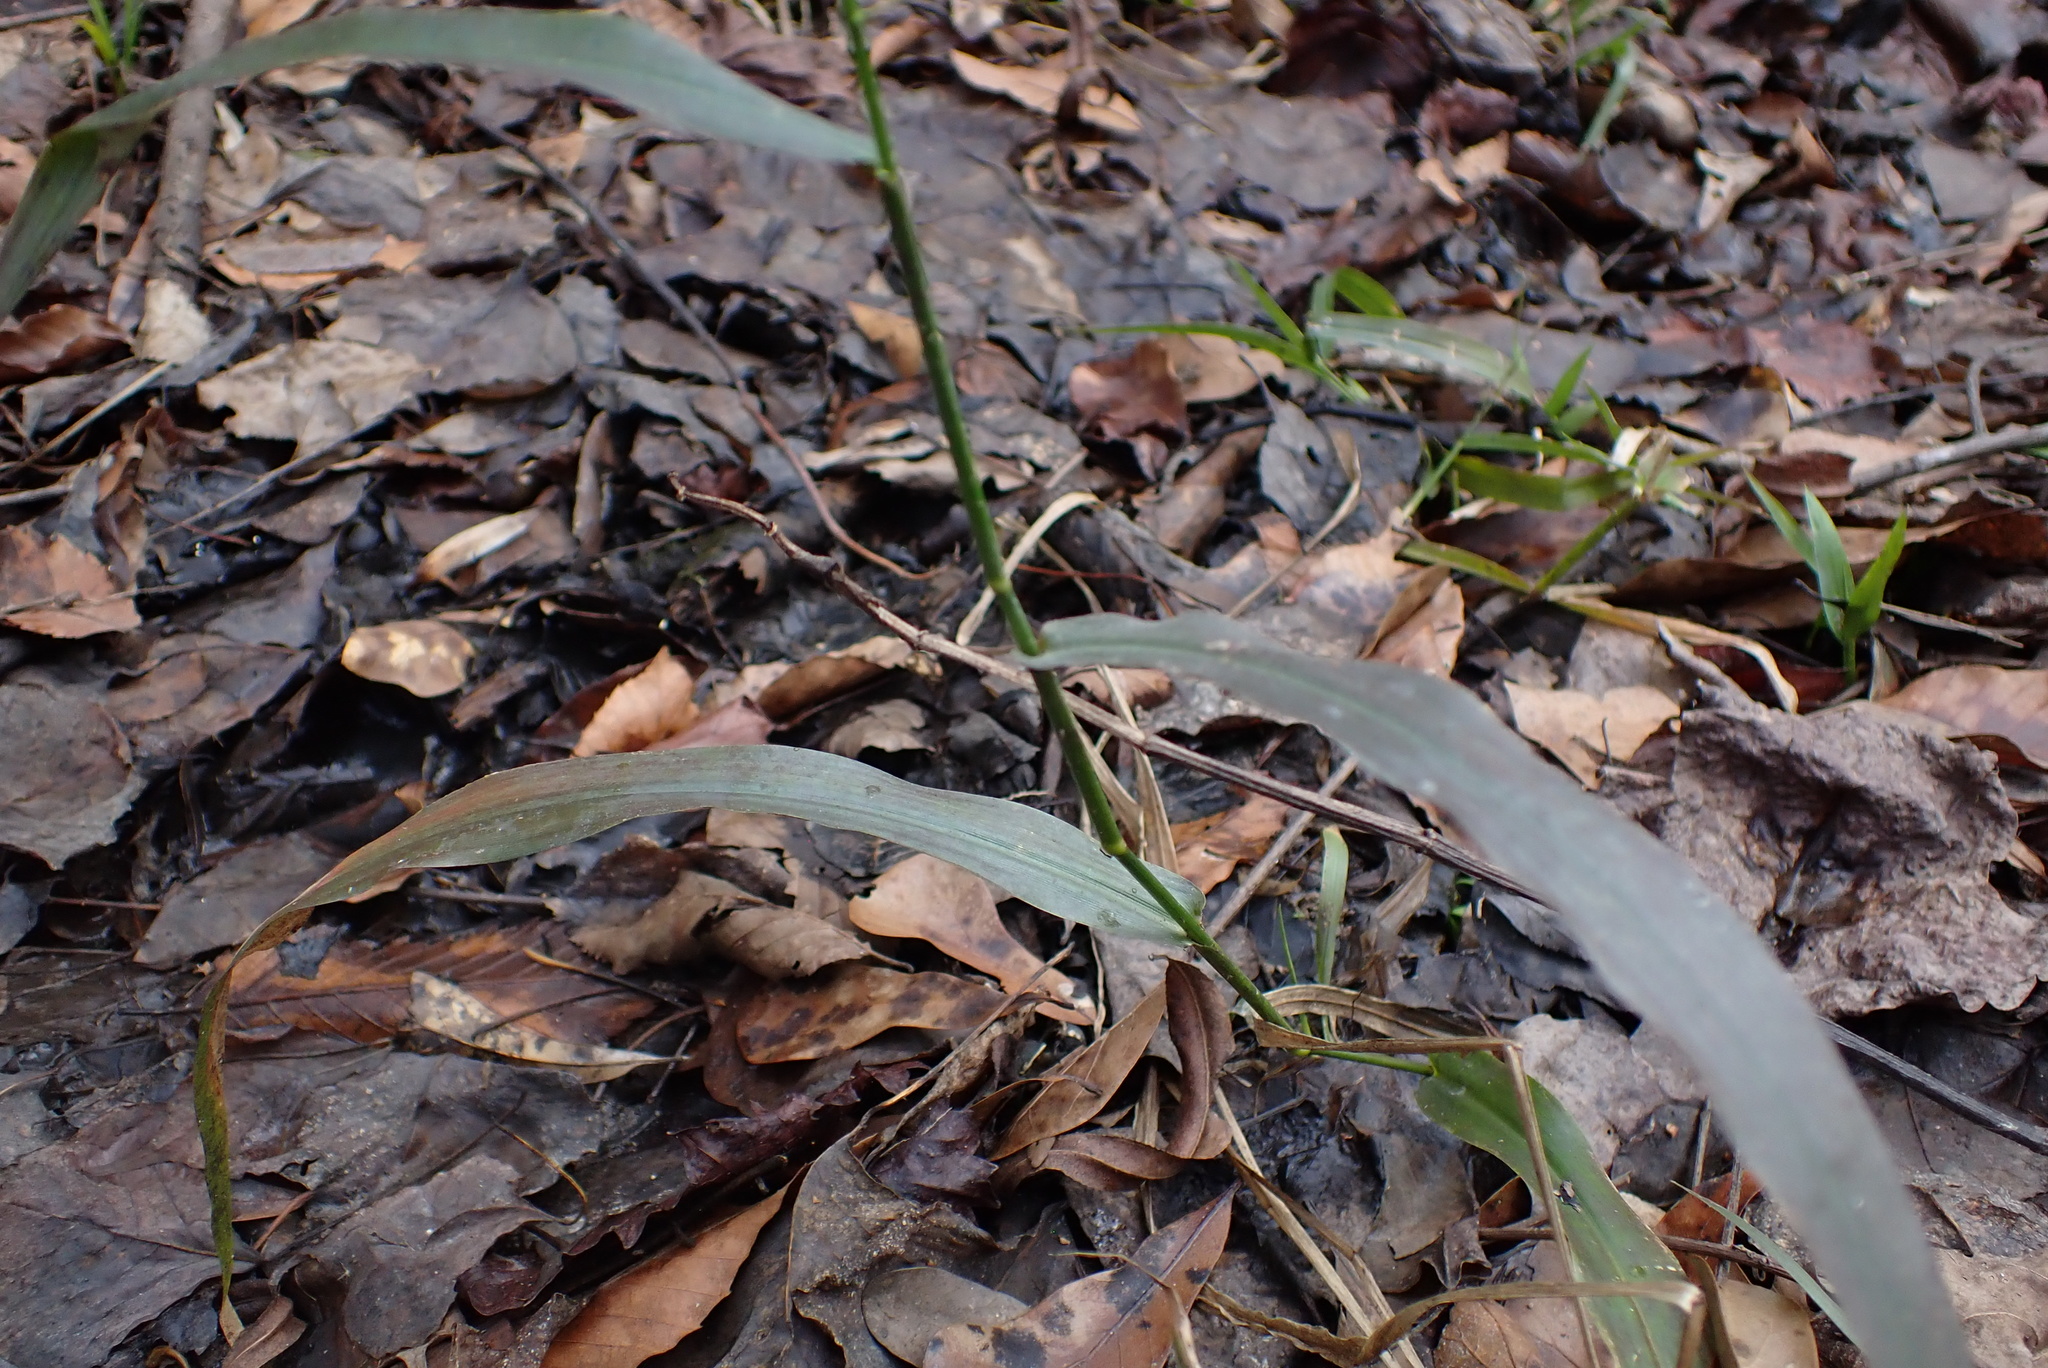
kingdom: Plantae
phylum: Tracheophyta
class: Liliopsida
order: Poales
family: Poaceae
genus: Panicum
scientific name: Panicum gymnocarpon
